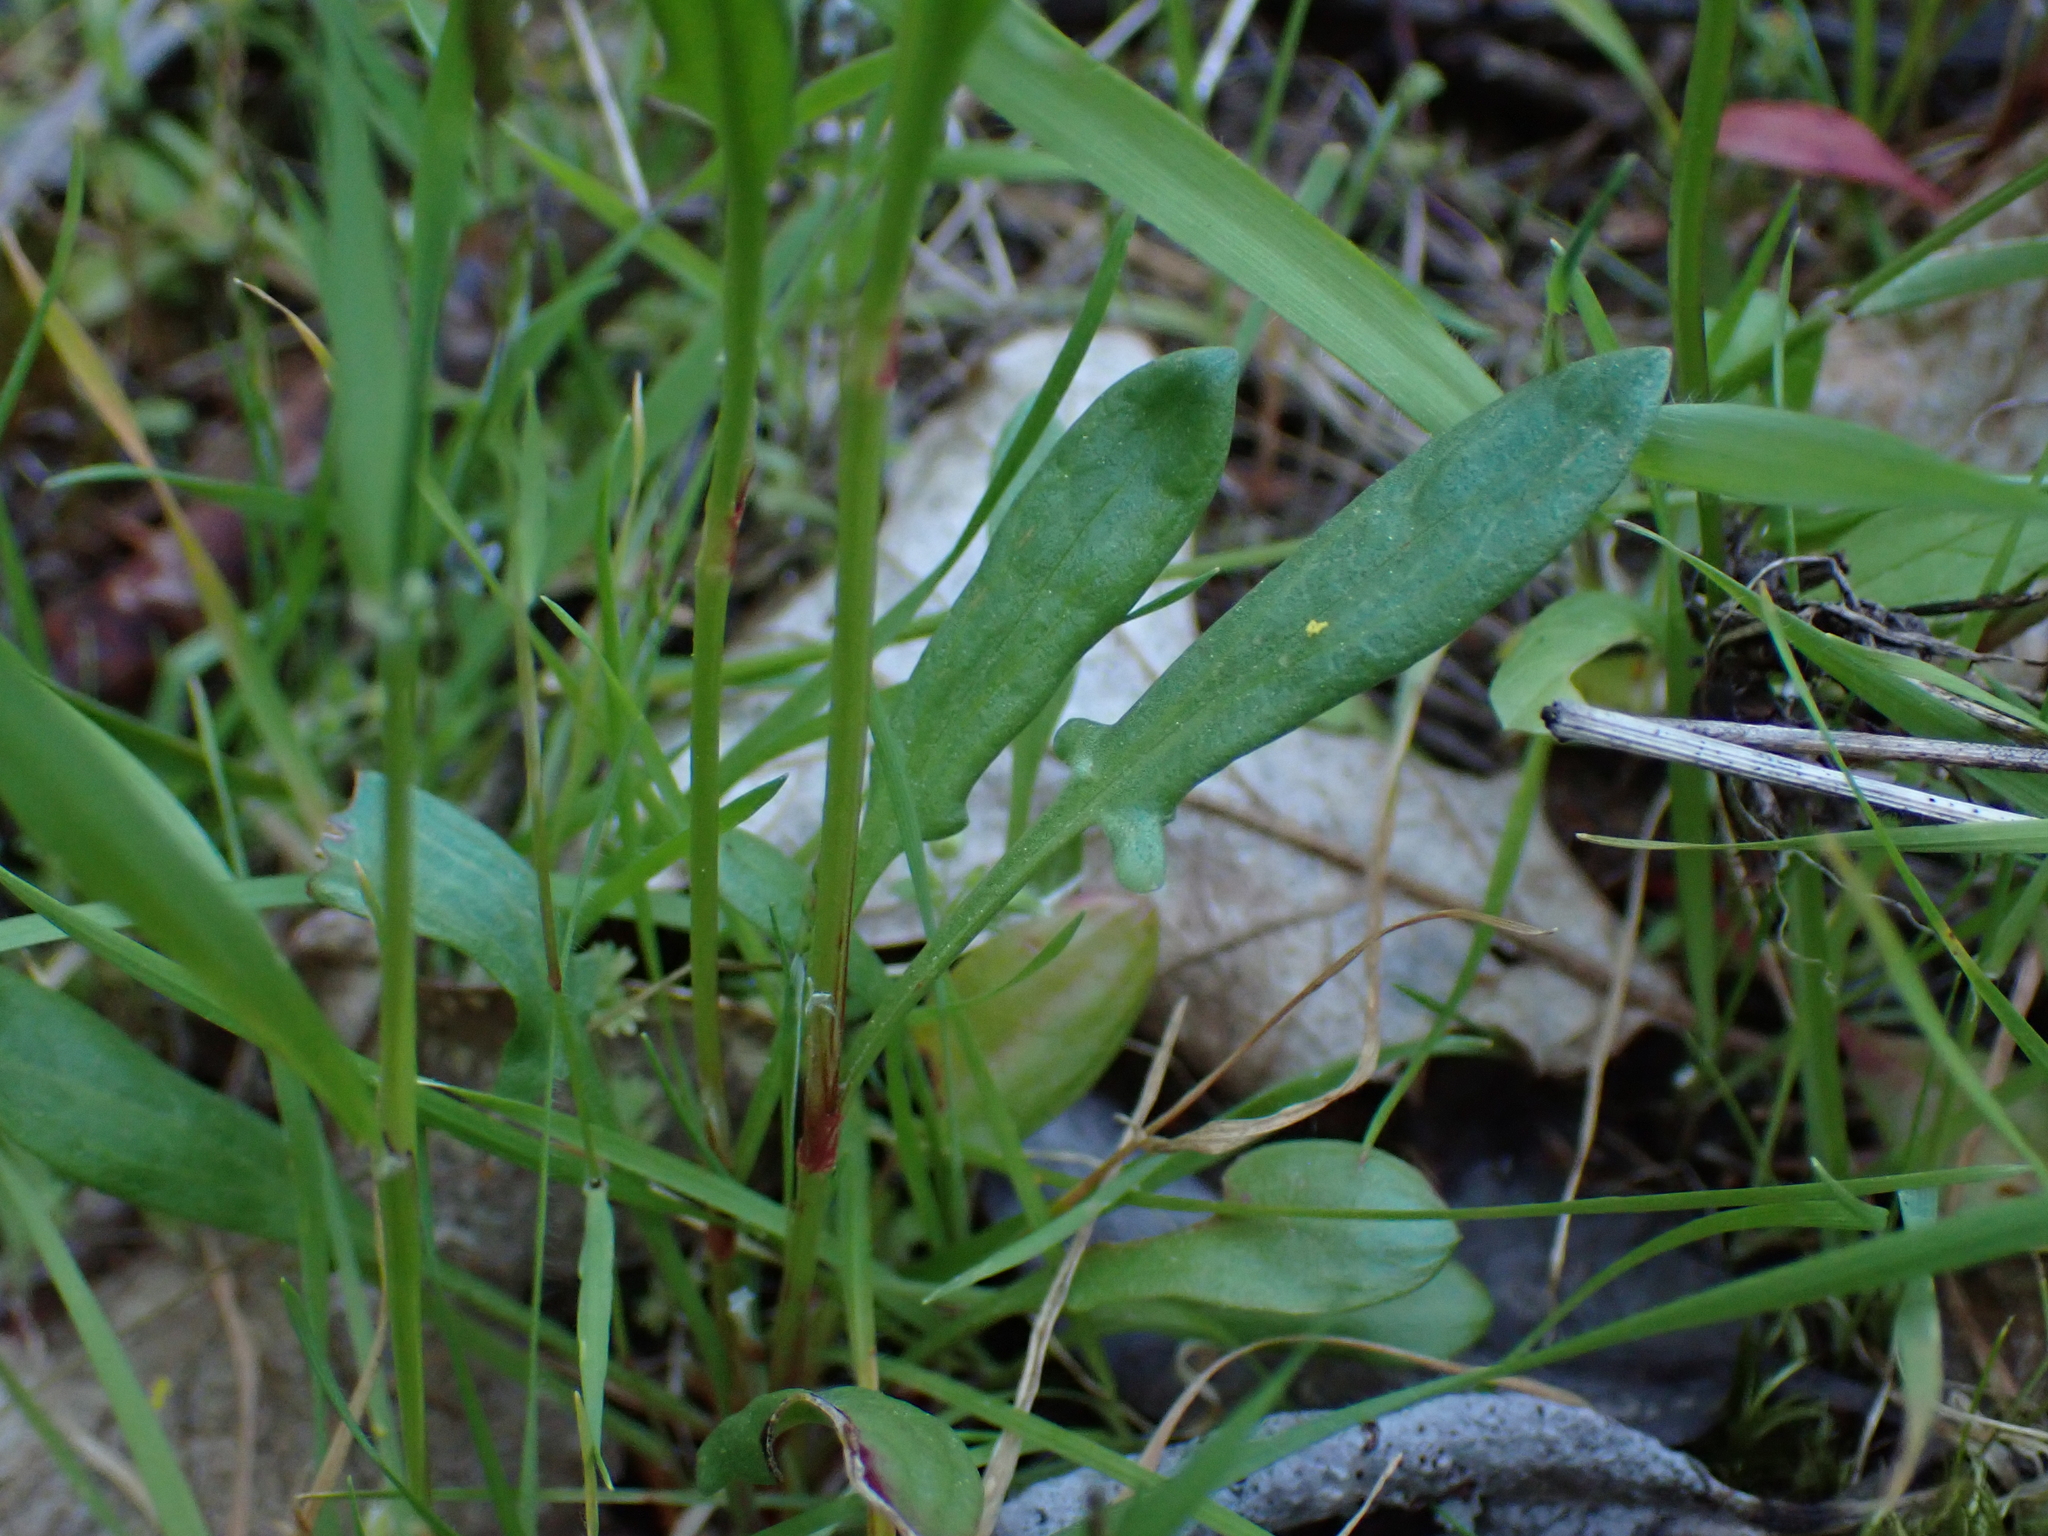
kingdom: Plantae
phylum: Tracheophyta
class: Magnoliopsida
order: Caryophyllales
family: Polygonaceae
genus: Rumex
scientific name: Rumex acetosella
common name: Common sheep sorrel
